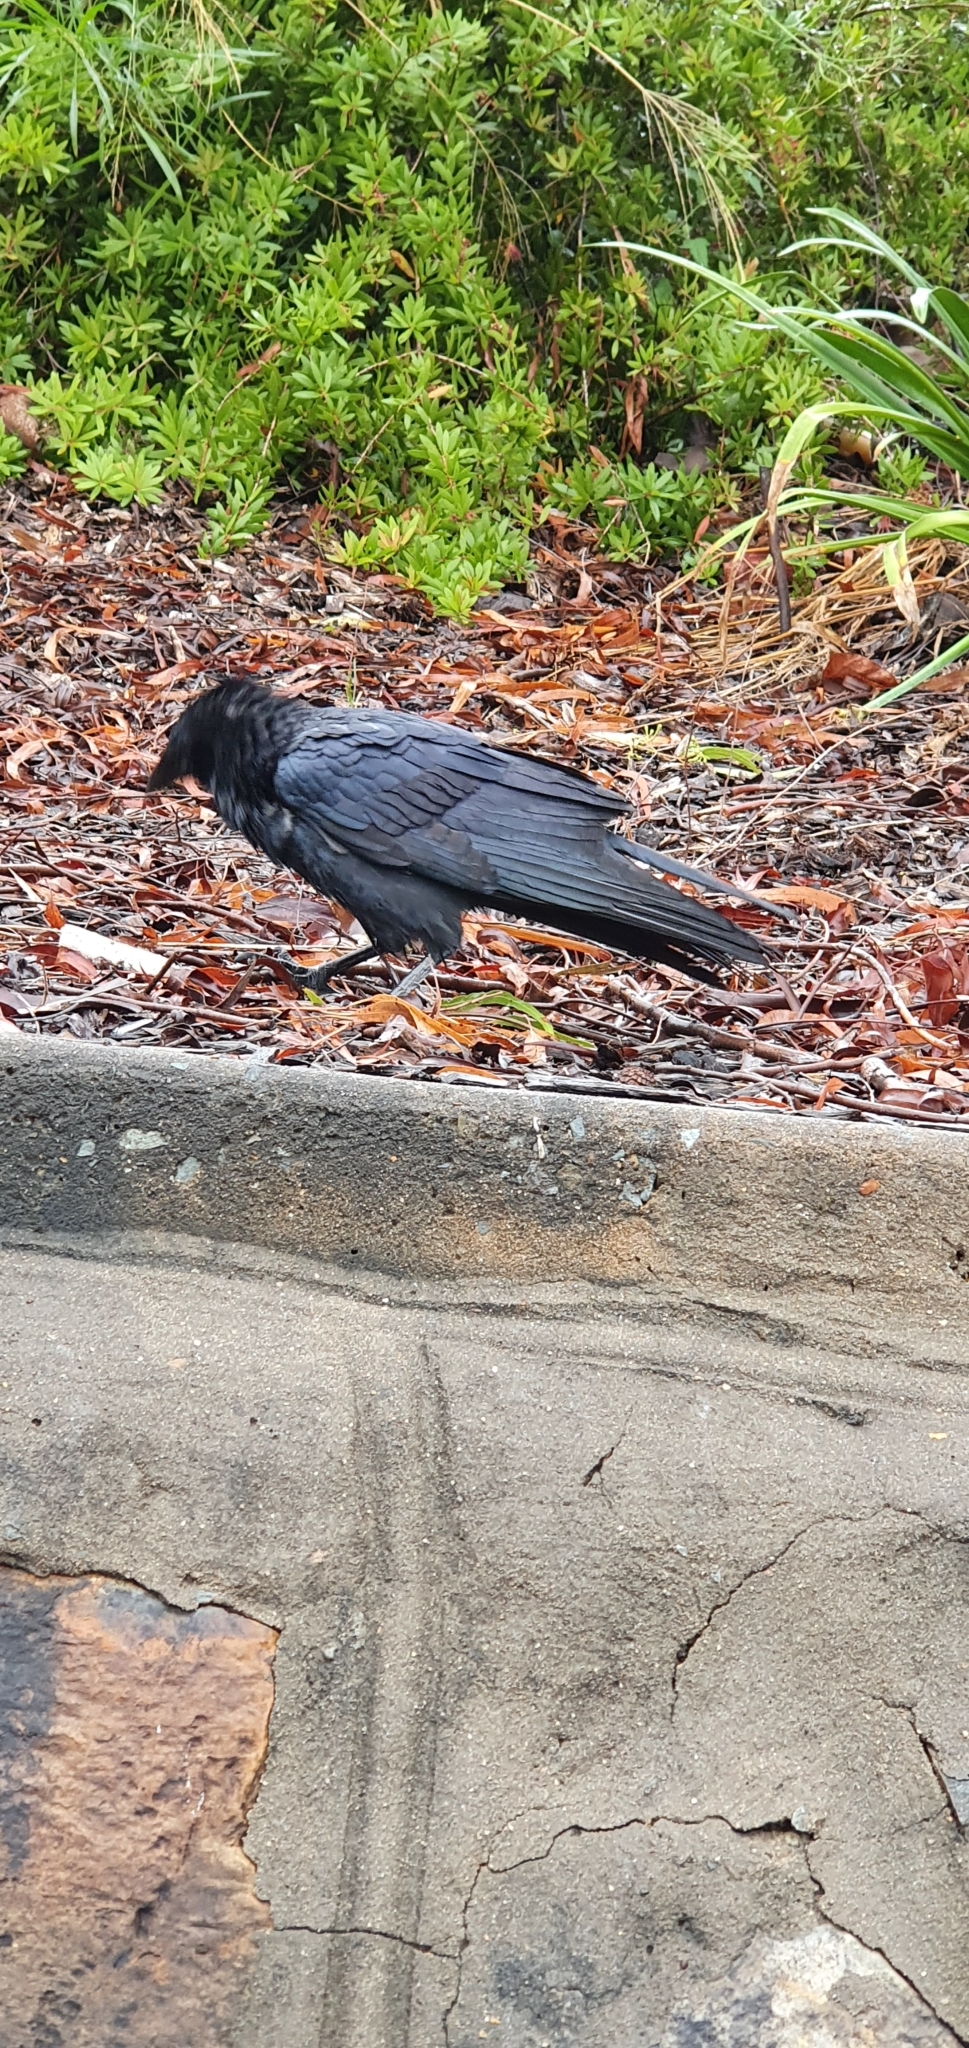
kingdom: Animalia
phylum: Chordata
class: Aves
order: Passeriformes
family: Corvidae
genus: Corvus
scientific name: Corvus orru
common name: Torresian crow
